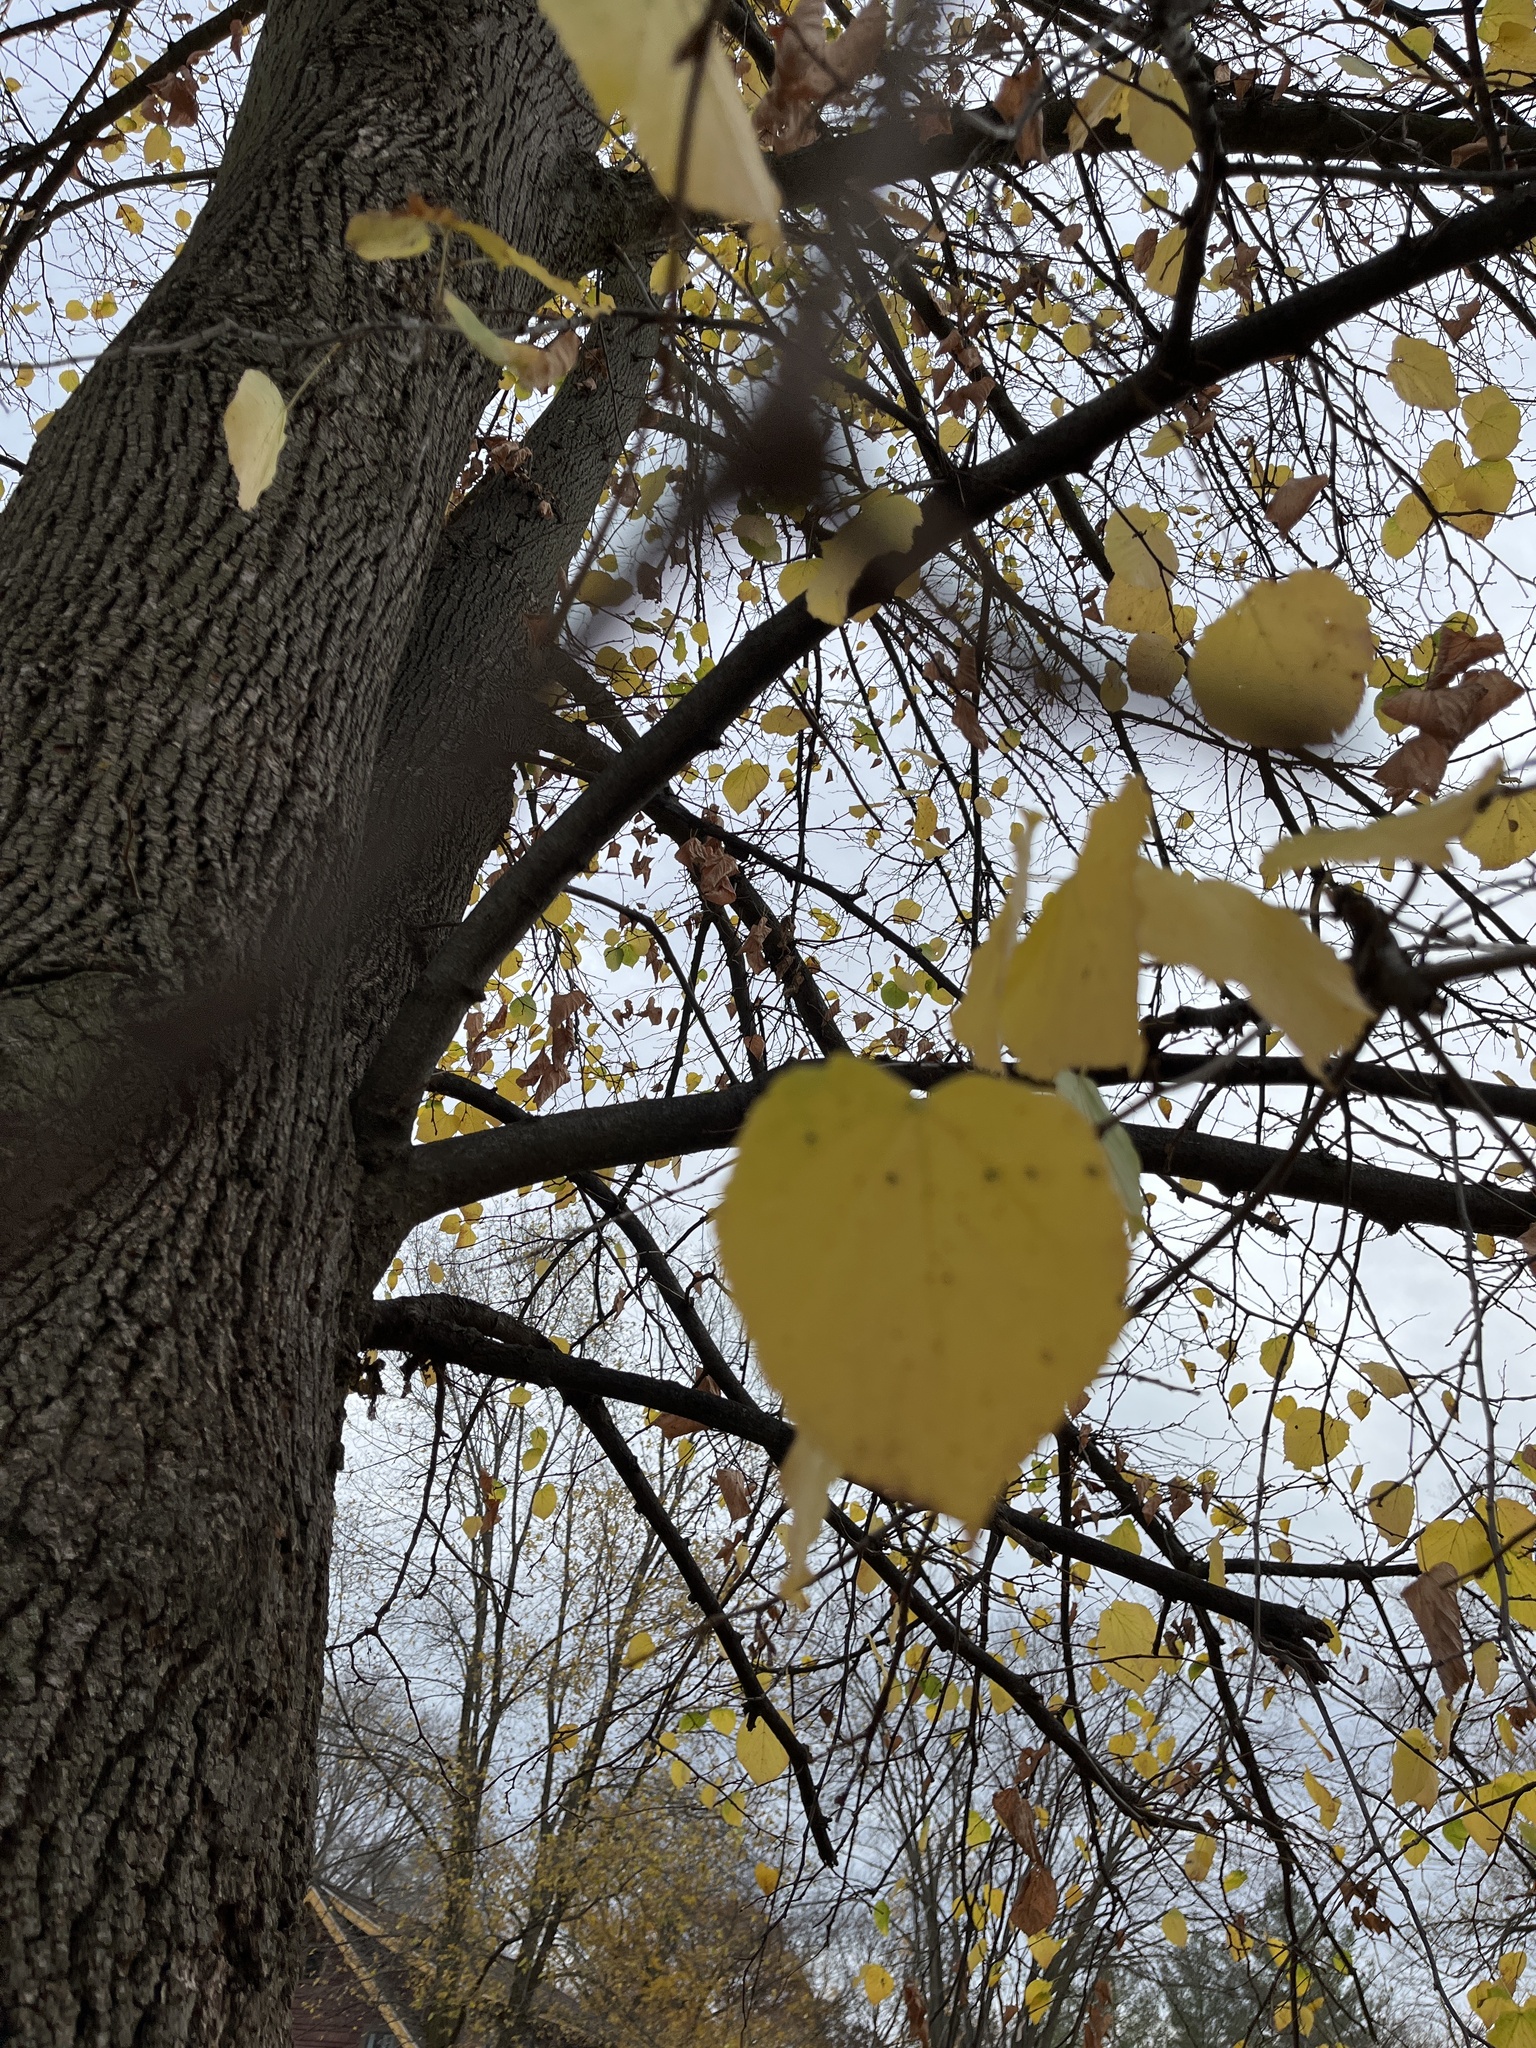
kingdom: Plantae
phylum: Tracheophyta
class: Magnoliopsida
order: Fabales
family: Fabaceae
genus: Cercis
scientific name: Cercis canadensis
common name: Eastern redbud
